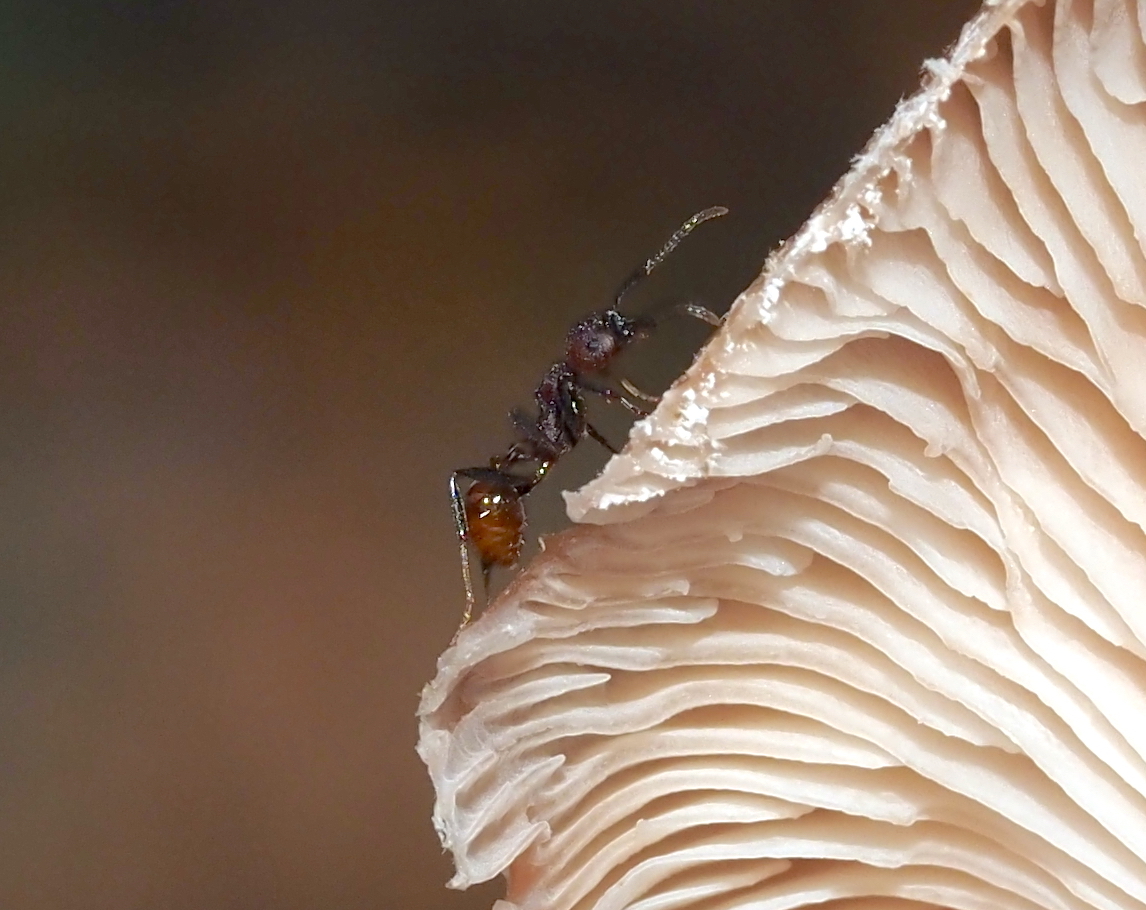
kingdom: Animalia
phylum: Arthropoda
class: Insecta
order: Hymenoptera
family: Formicidae
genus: Aphaenogaster
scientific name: Aphaenogaster tennesseensis
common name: Tennessee thread-waisted ant
